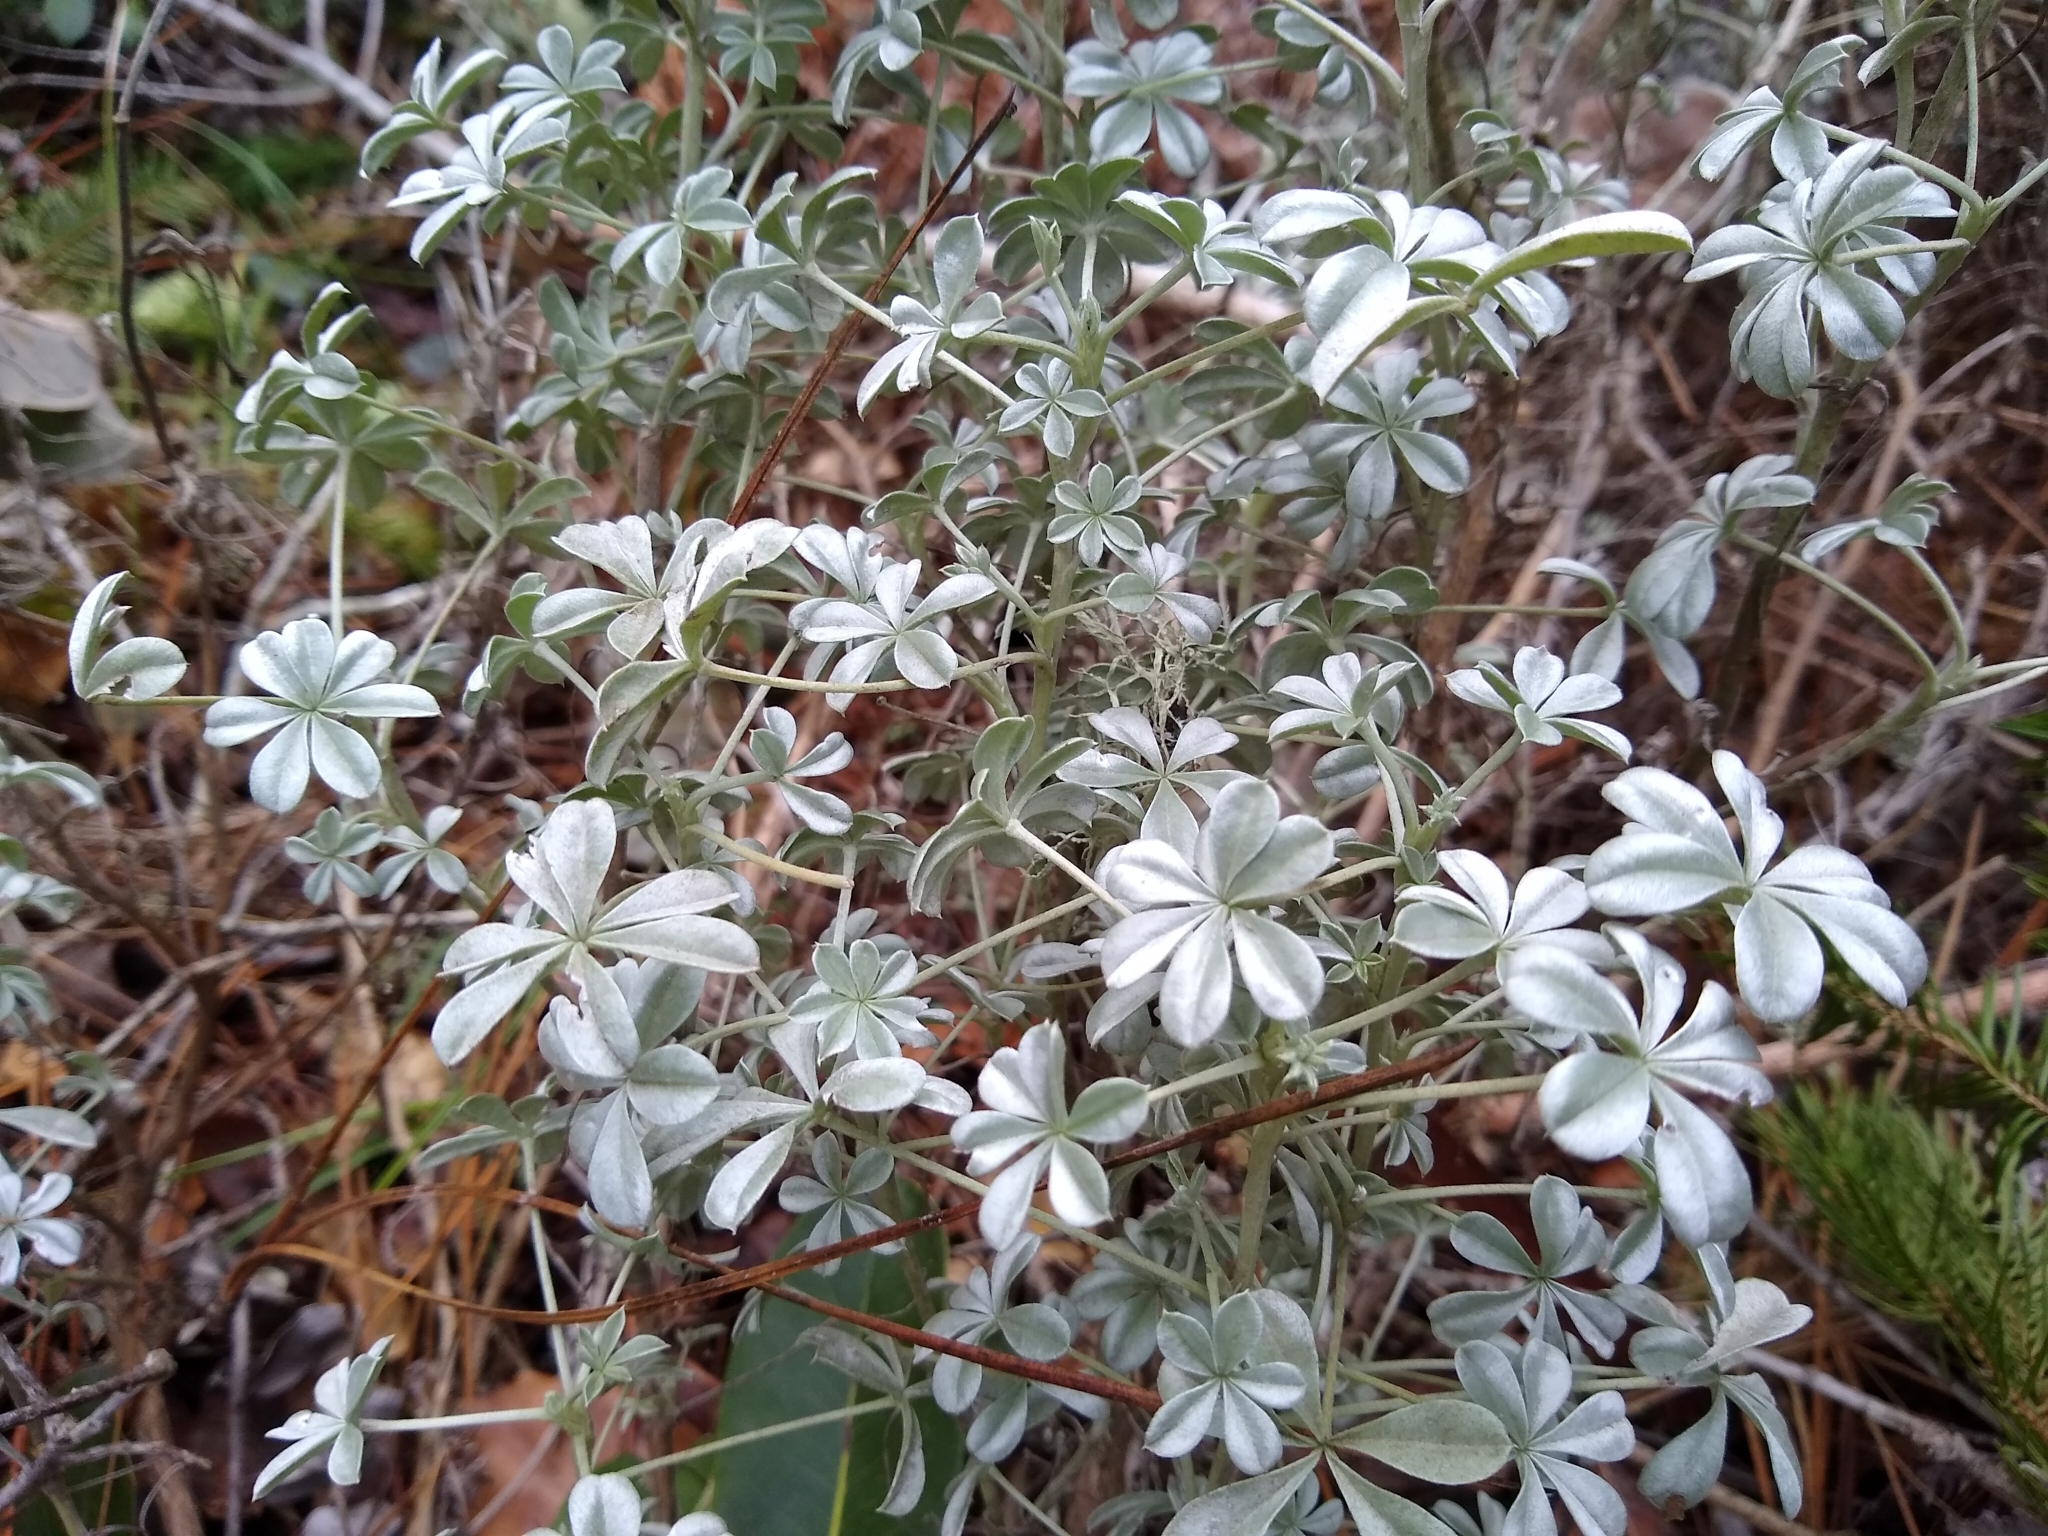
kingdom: Plantae
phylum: Tracheophyta
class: Magnoliopsida
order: Fabales
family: Fabaceae
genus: Lupinus
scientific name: Lupinus albifrons
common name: Foothill lupine
